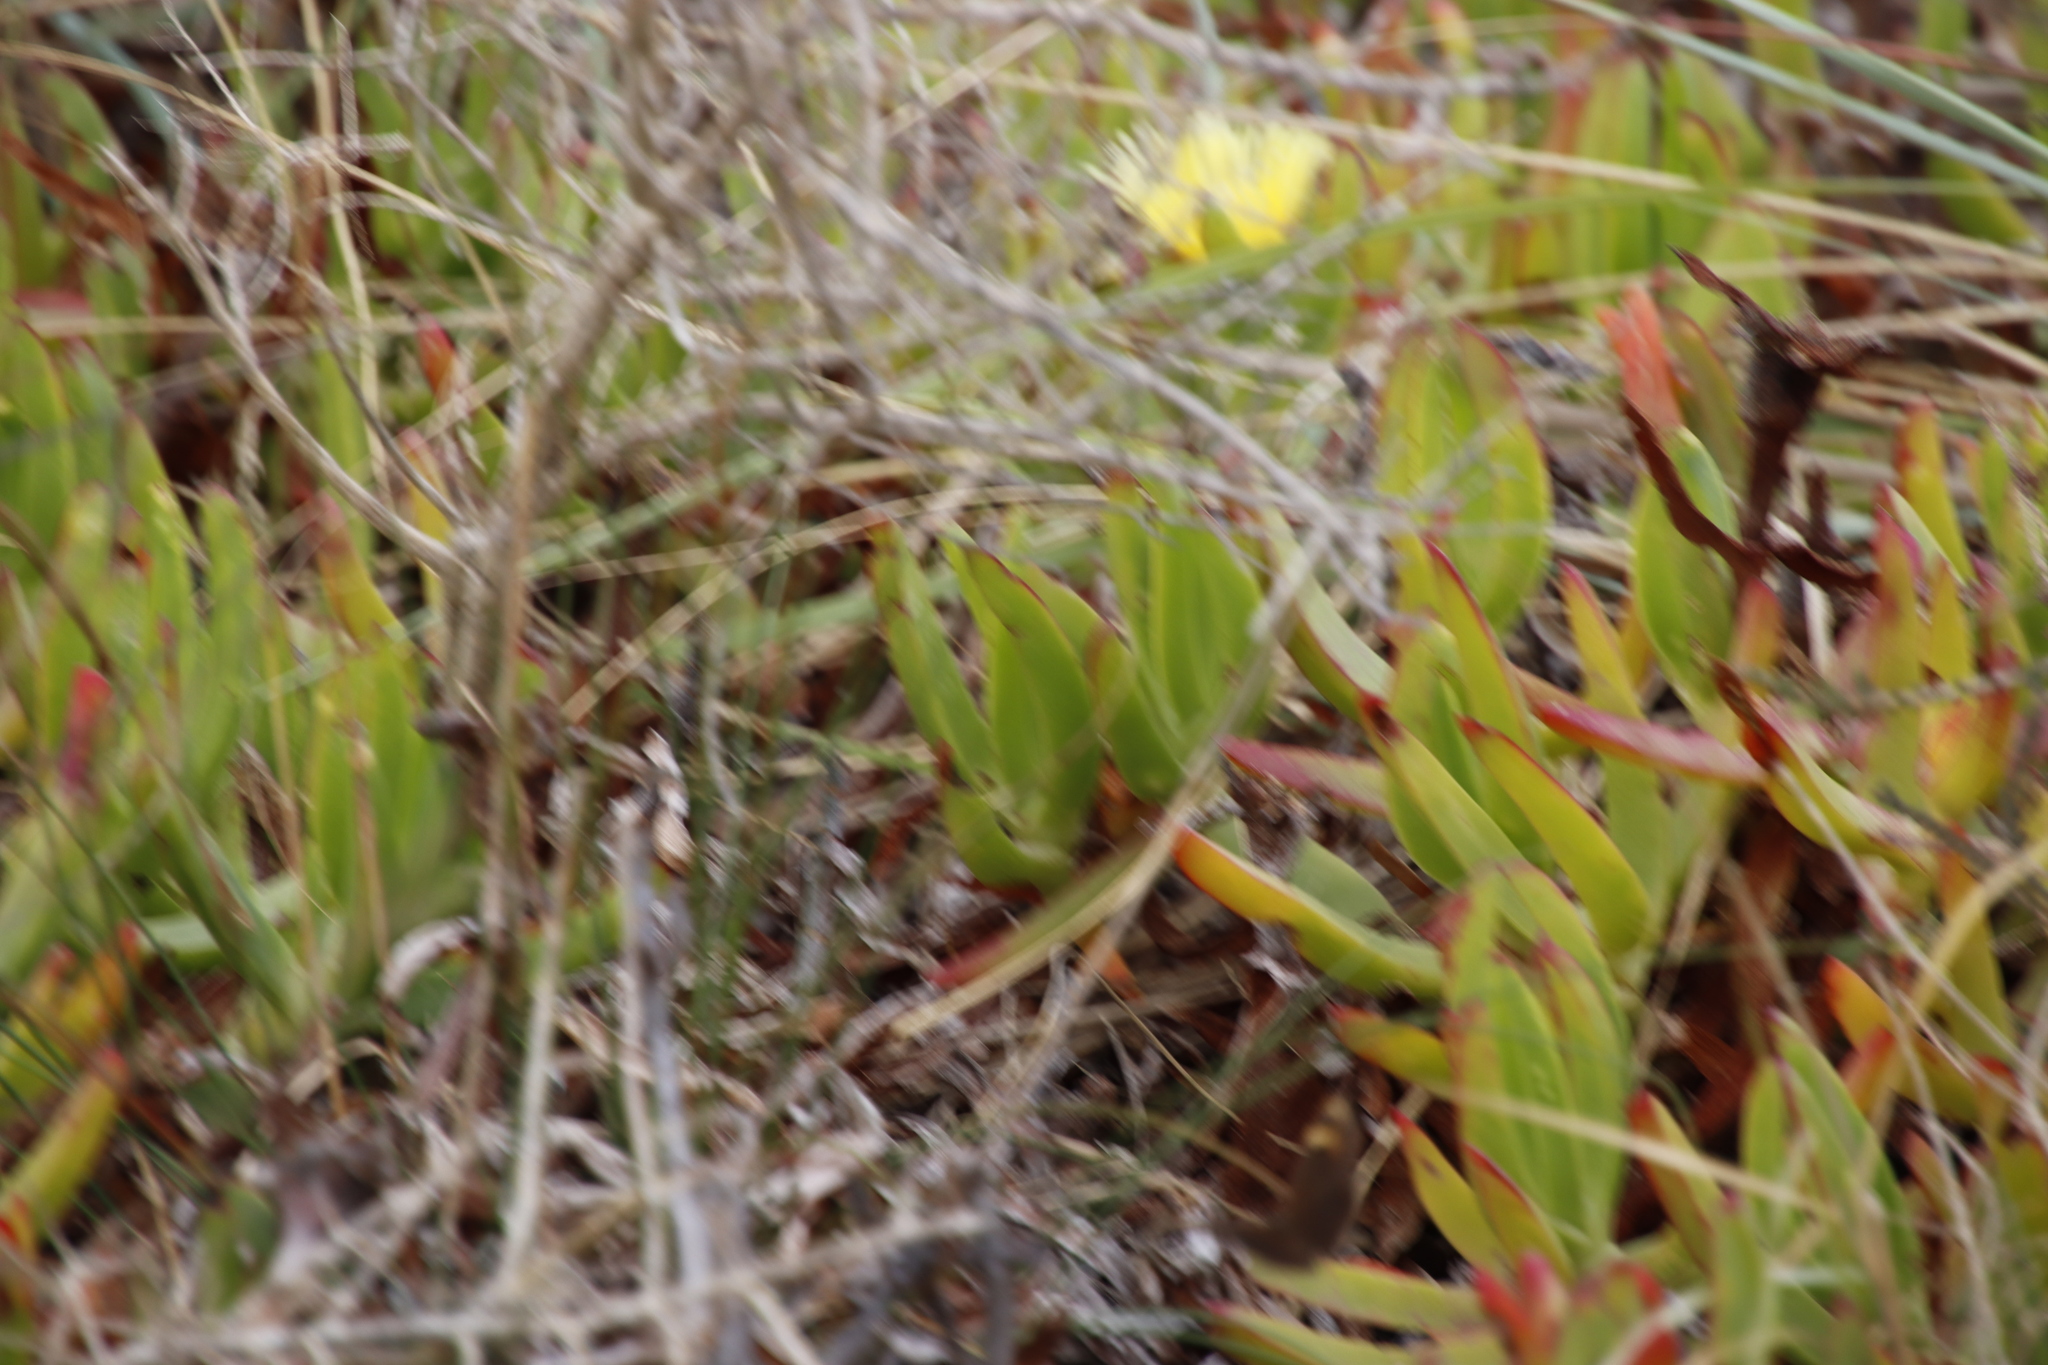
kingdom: Plantae
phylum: Tracheophyta
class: Magnoliopsida
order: Caryophyllales
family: Aizoaceae
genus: Carpobrotus
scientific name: Carpobrotus edulis
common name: Hottentot-fig
